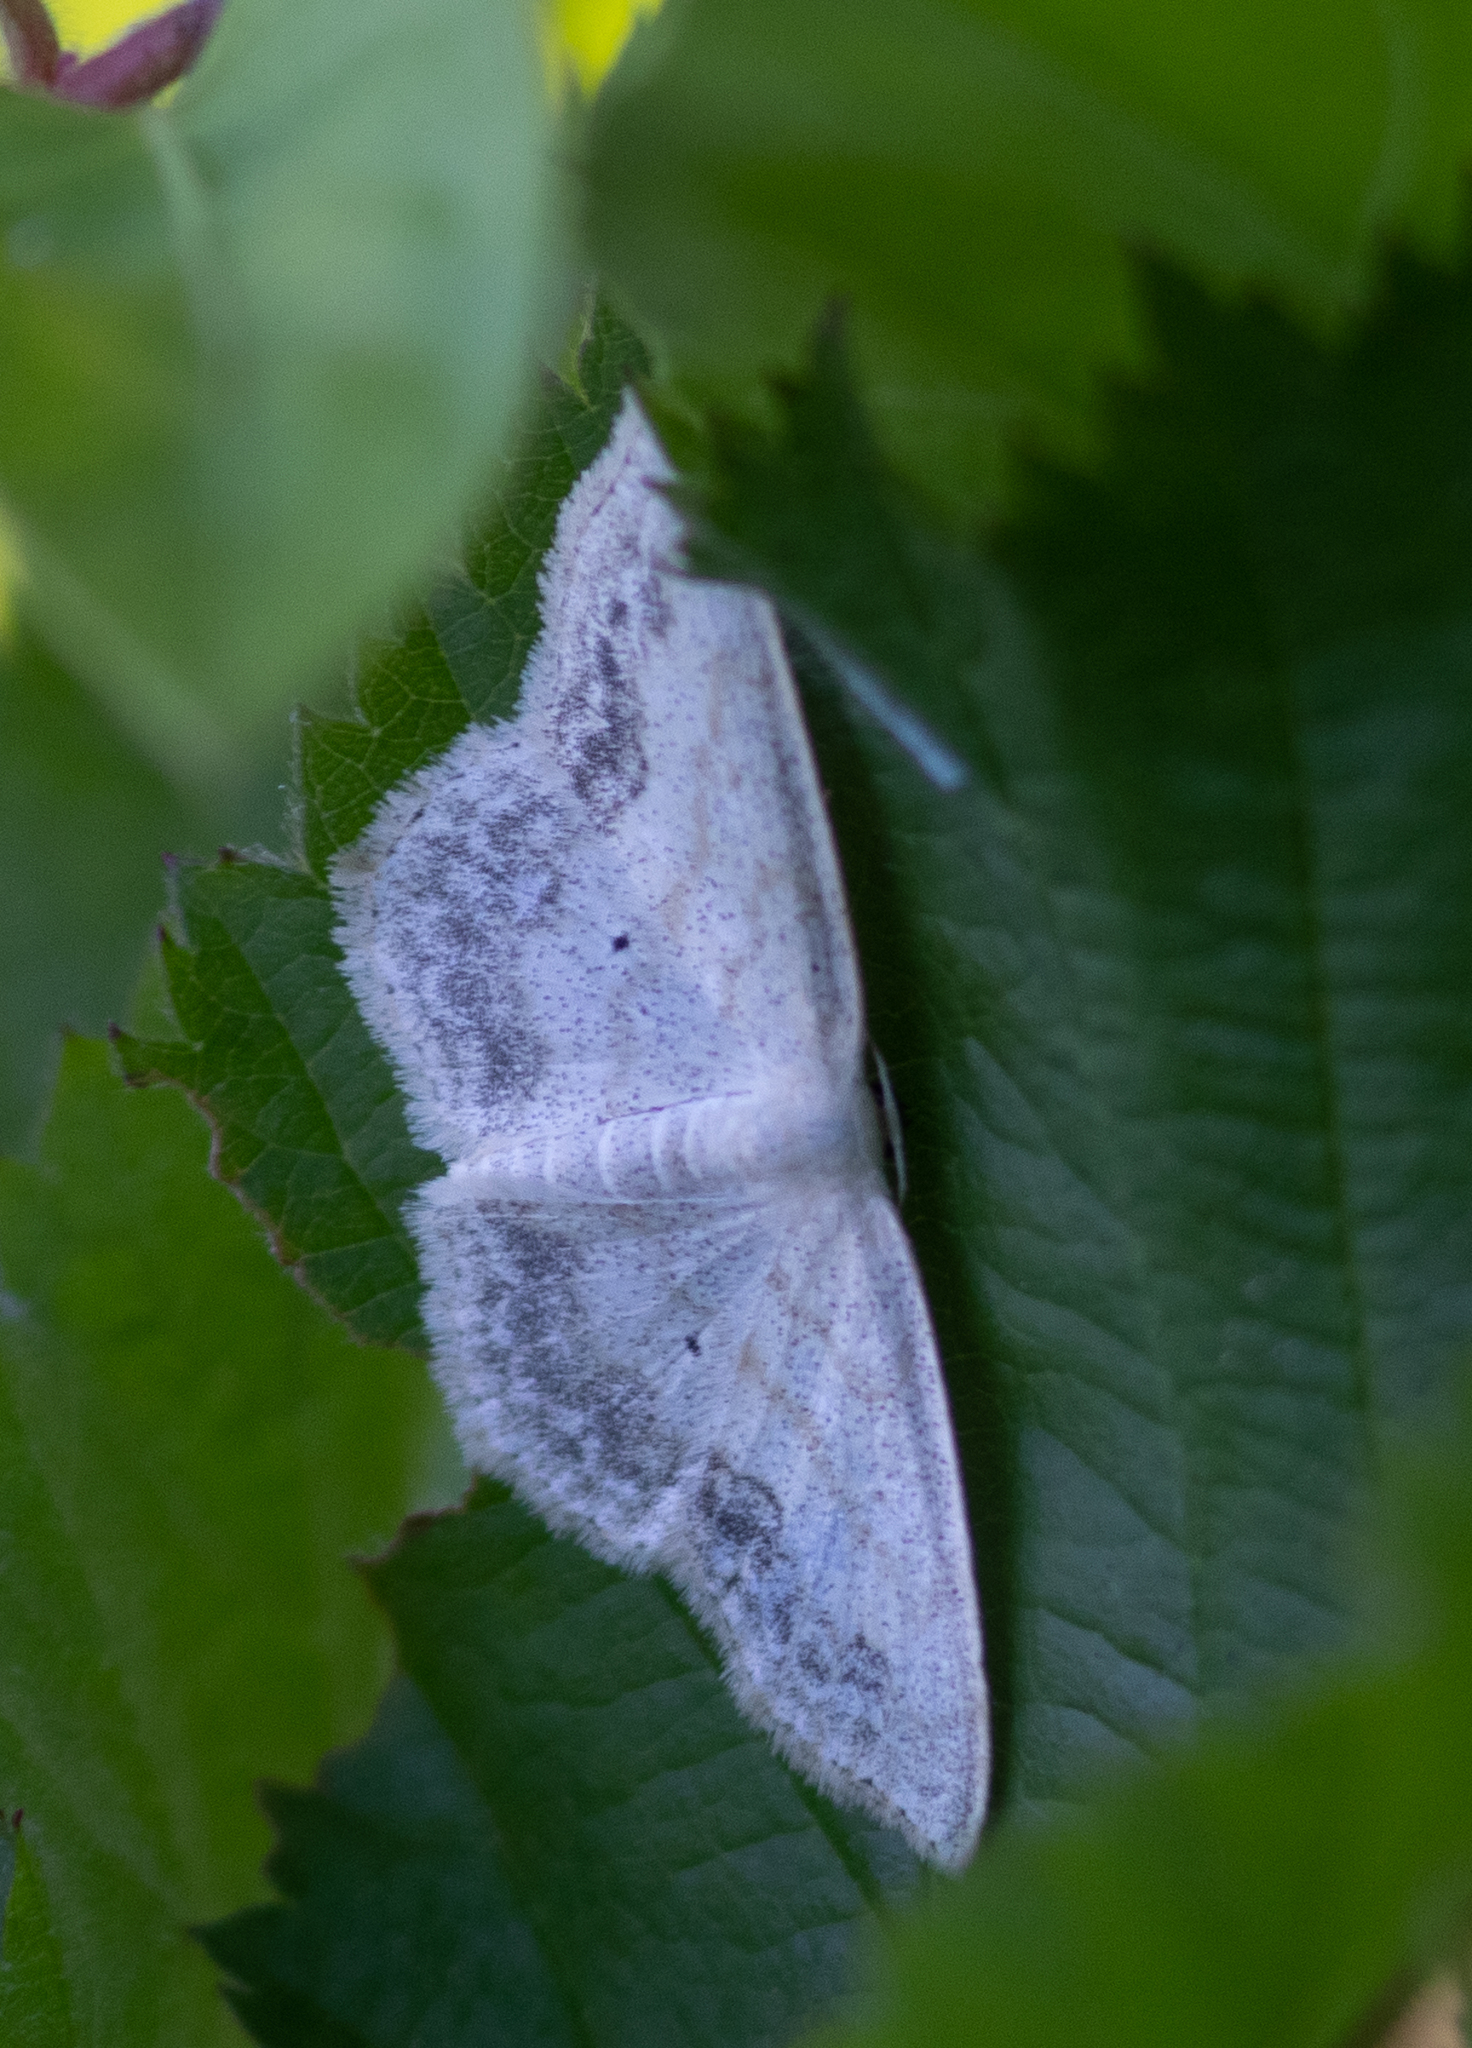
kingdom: Animalia
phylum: Arthropoda
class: Insecta
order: Lepidoptera
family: Geometridae
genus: Scopula
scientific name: Scopula limboundata
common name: Large lace border
